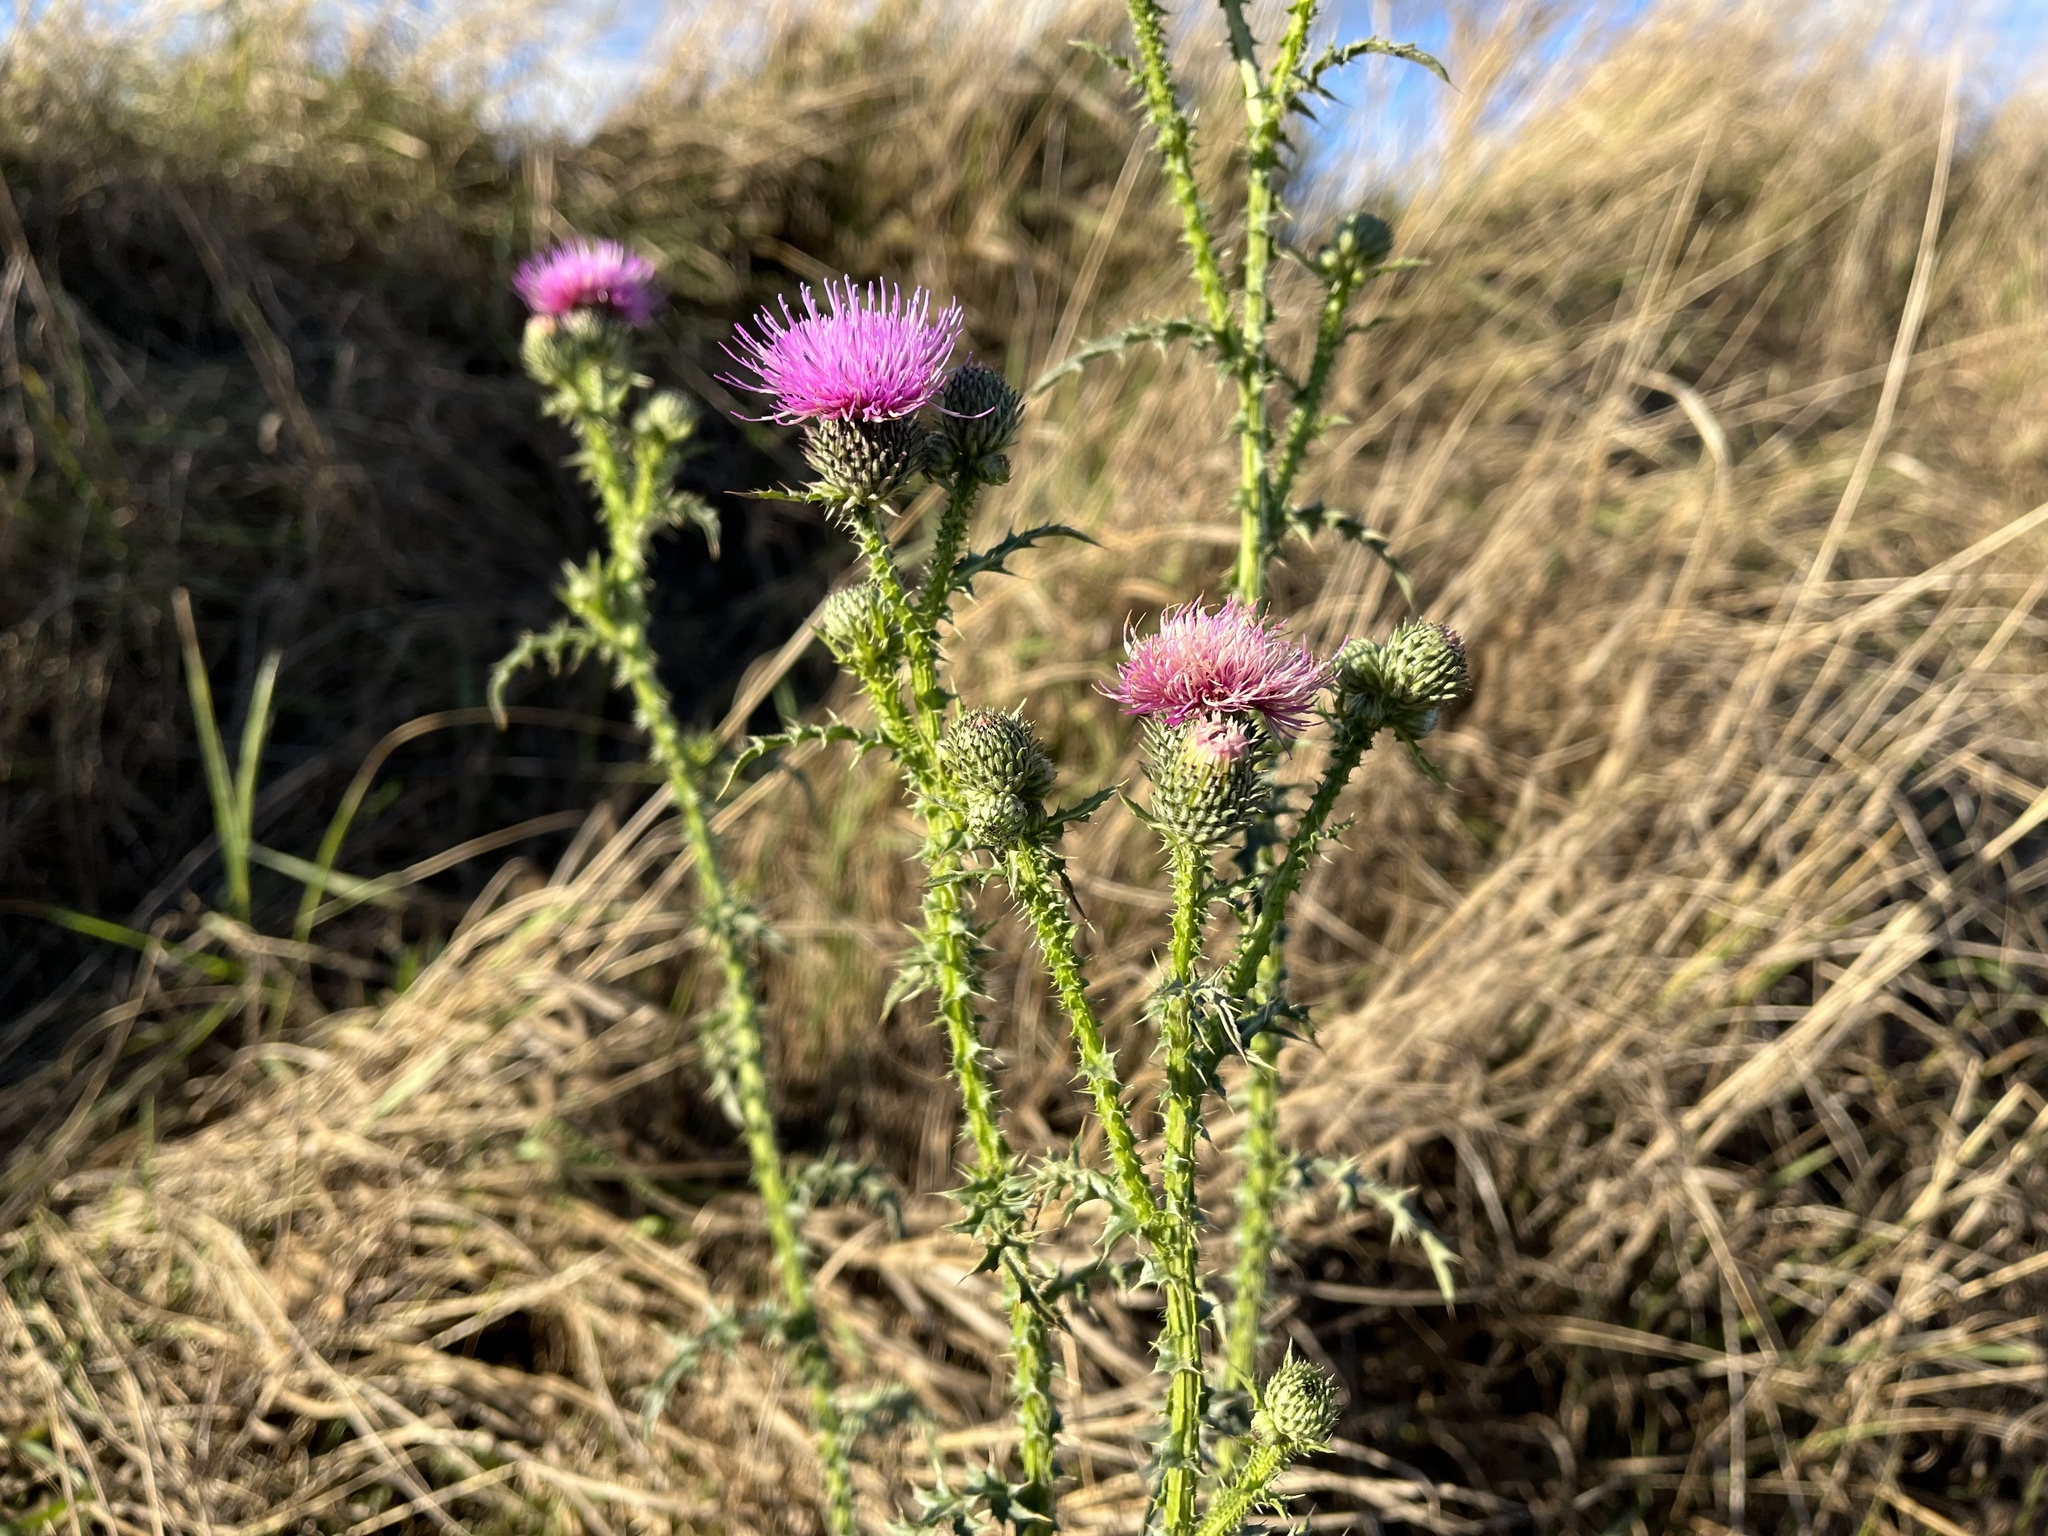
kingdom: Plantae
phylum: Tracheophyta
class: Magnoliopsida
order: Asterales
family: Asteraceae
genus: Carduus
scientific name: Carduus acanthoides
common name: Plumeless thistle
